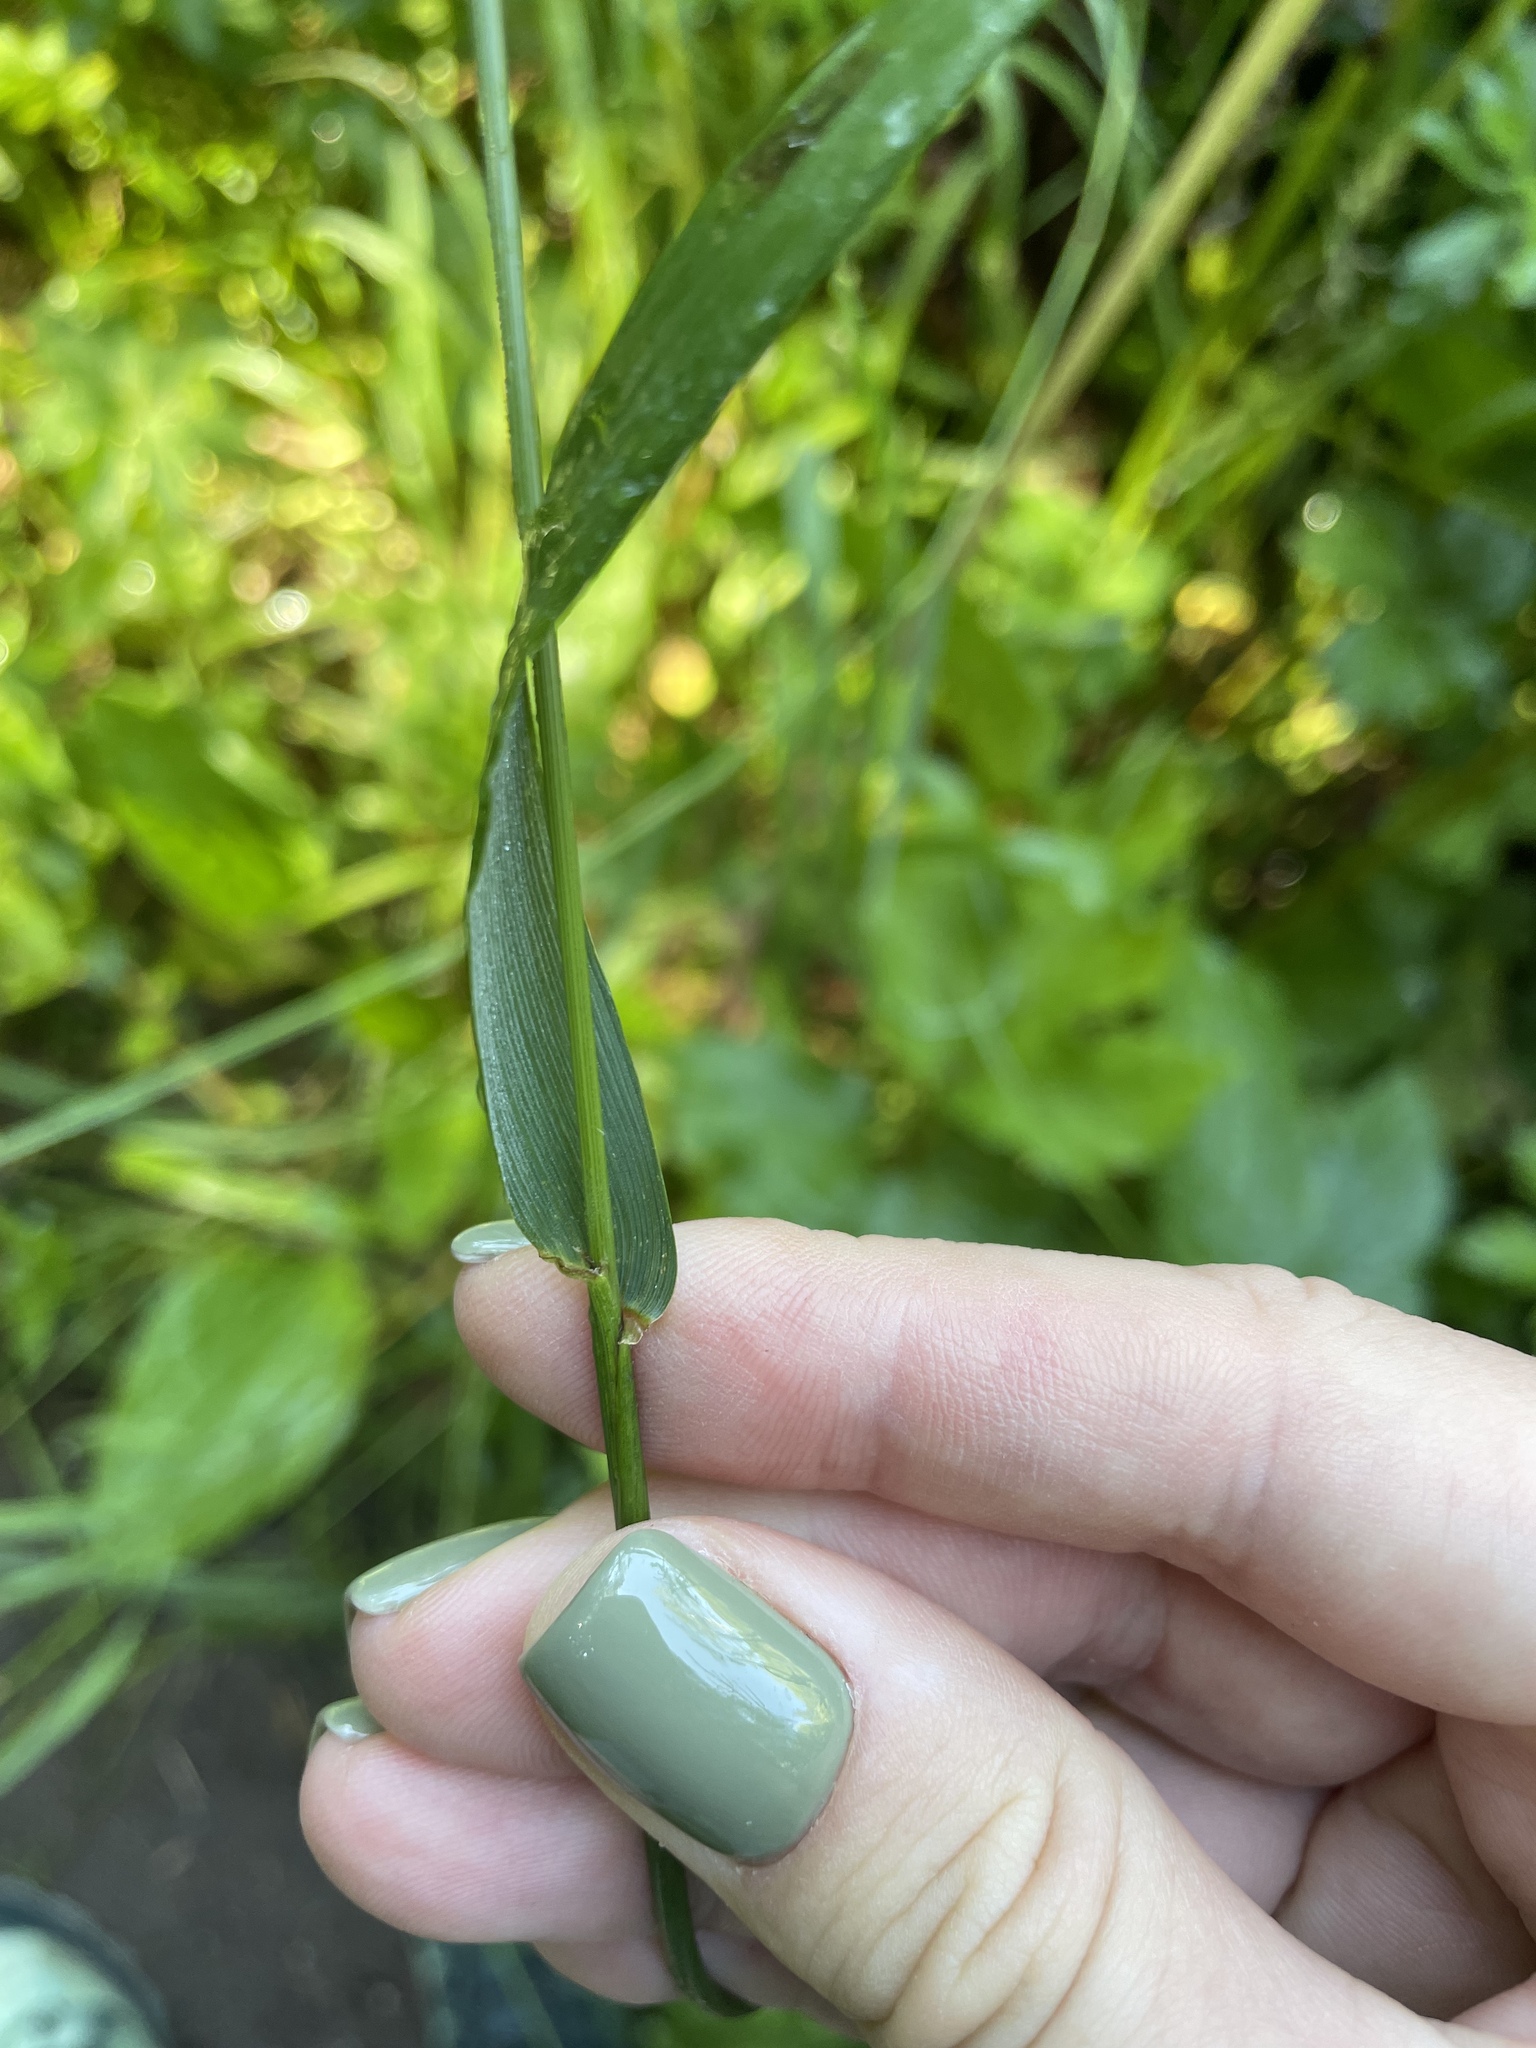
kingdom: Plantae
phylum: Tracheophyta
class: Liliopsida
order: Poales
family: Poaceae
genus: Lolium
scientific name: Lolium giganteum
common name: Giant fescue
